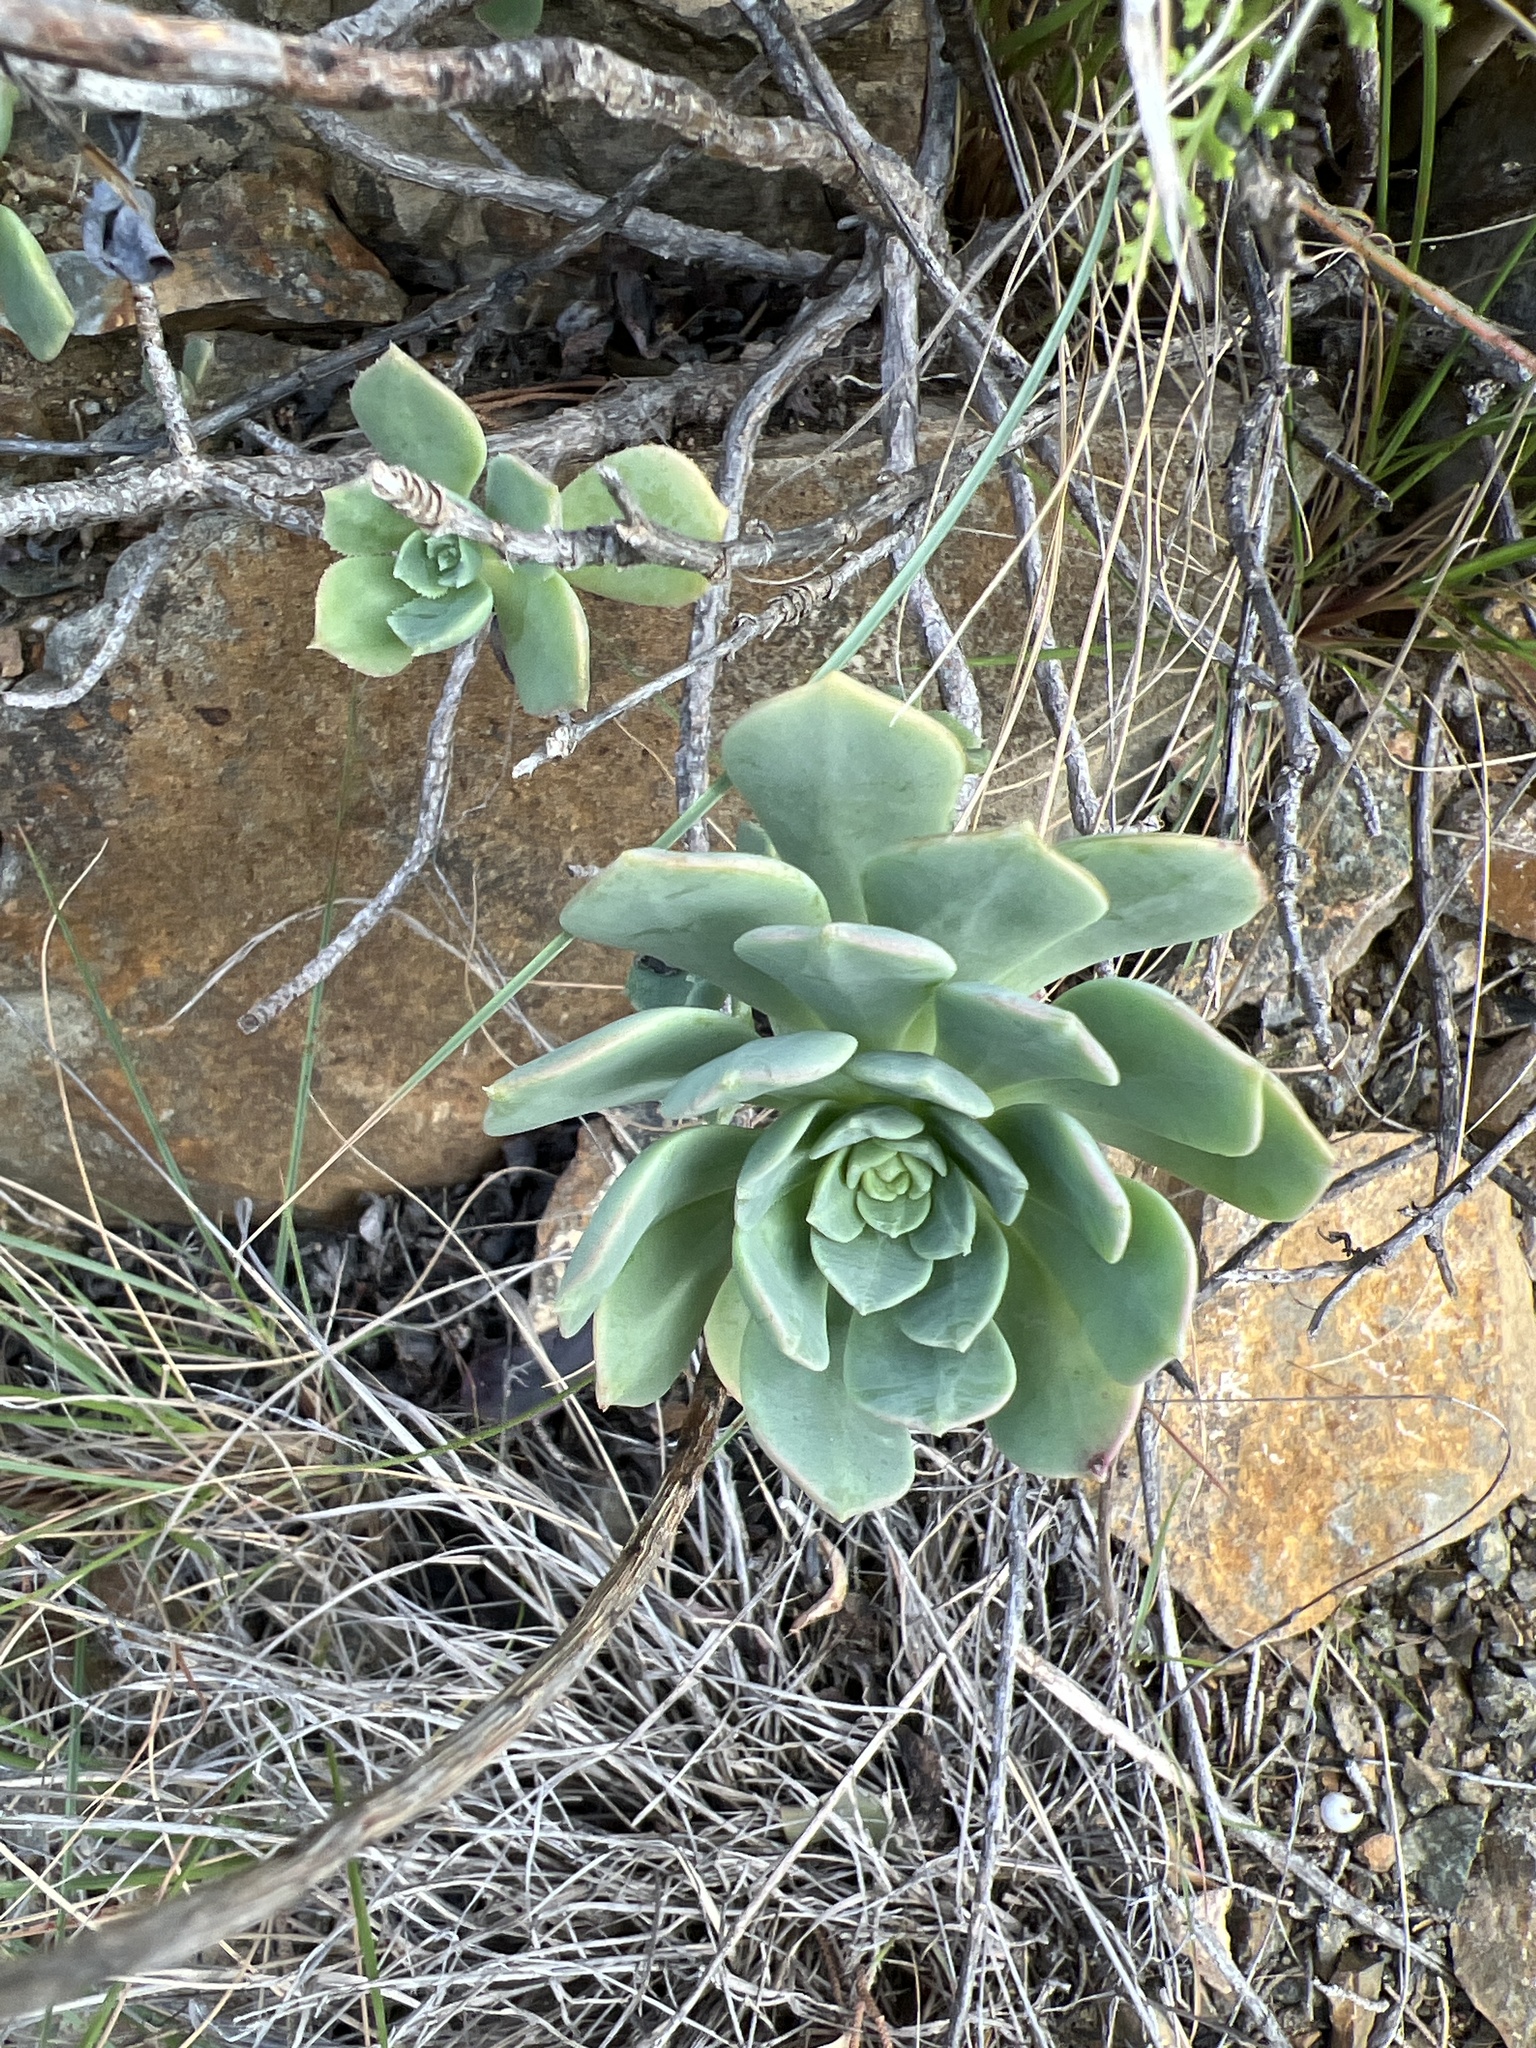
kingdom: Plantae
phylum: Tracheophyta
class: Magnoliopsida
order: Saxifragales
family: Crassulaceae
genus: Aeonium
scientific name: Aeonium castello-paivae
